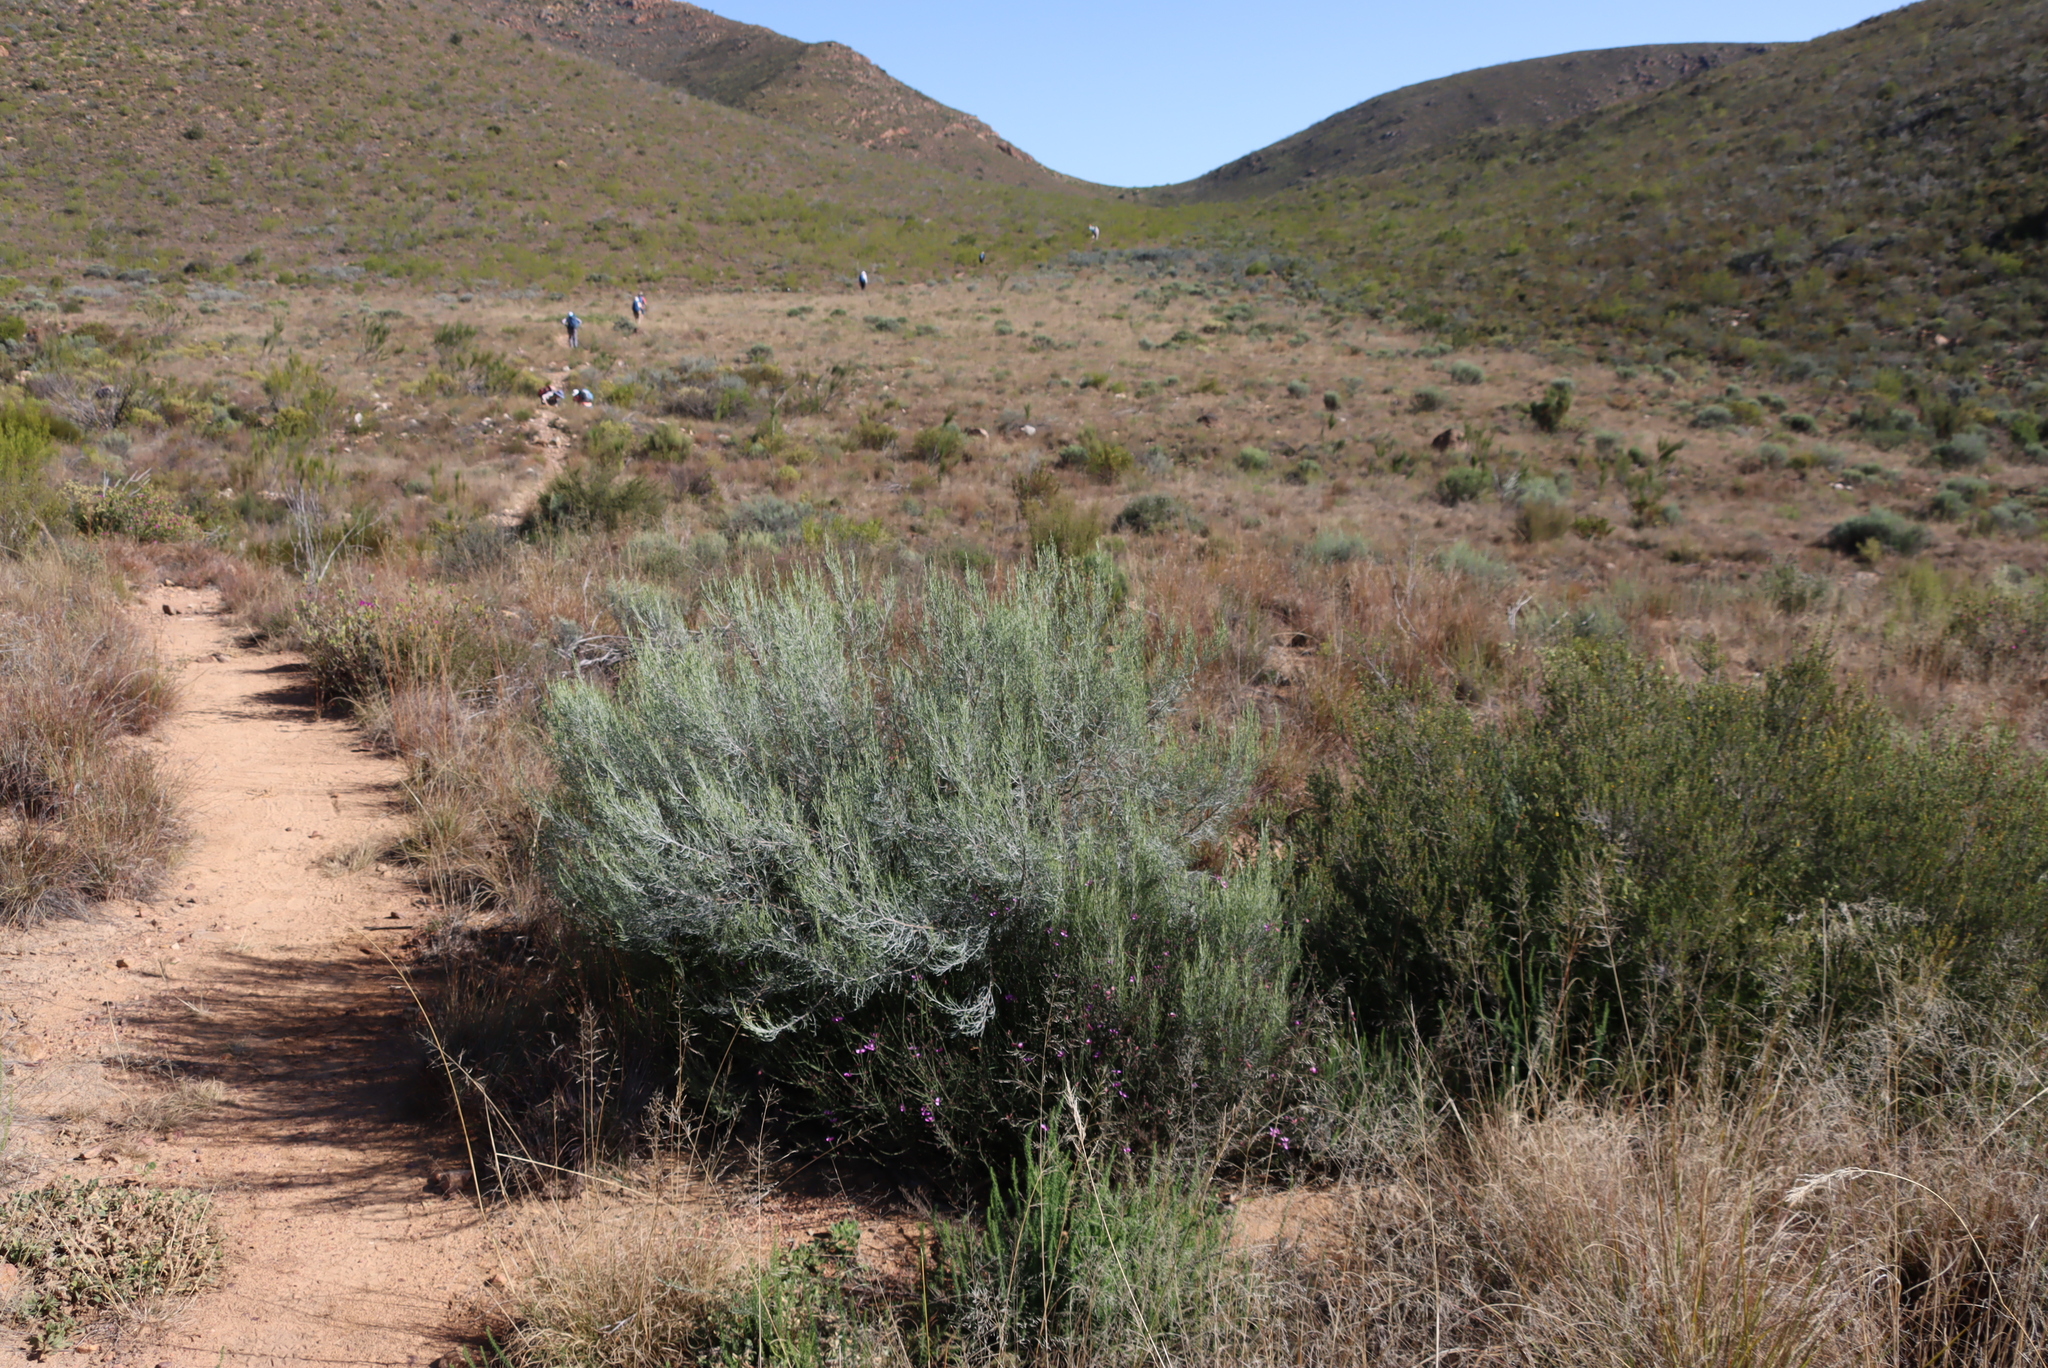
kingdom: Plantae
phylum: Tracheophyta
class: Magnoliopsida
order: Asterales
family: Asteraceae
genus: Dicerothamnus
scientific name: Dicerothamnus rhinocerotis
